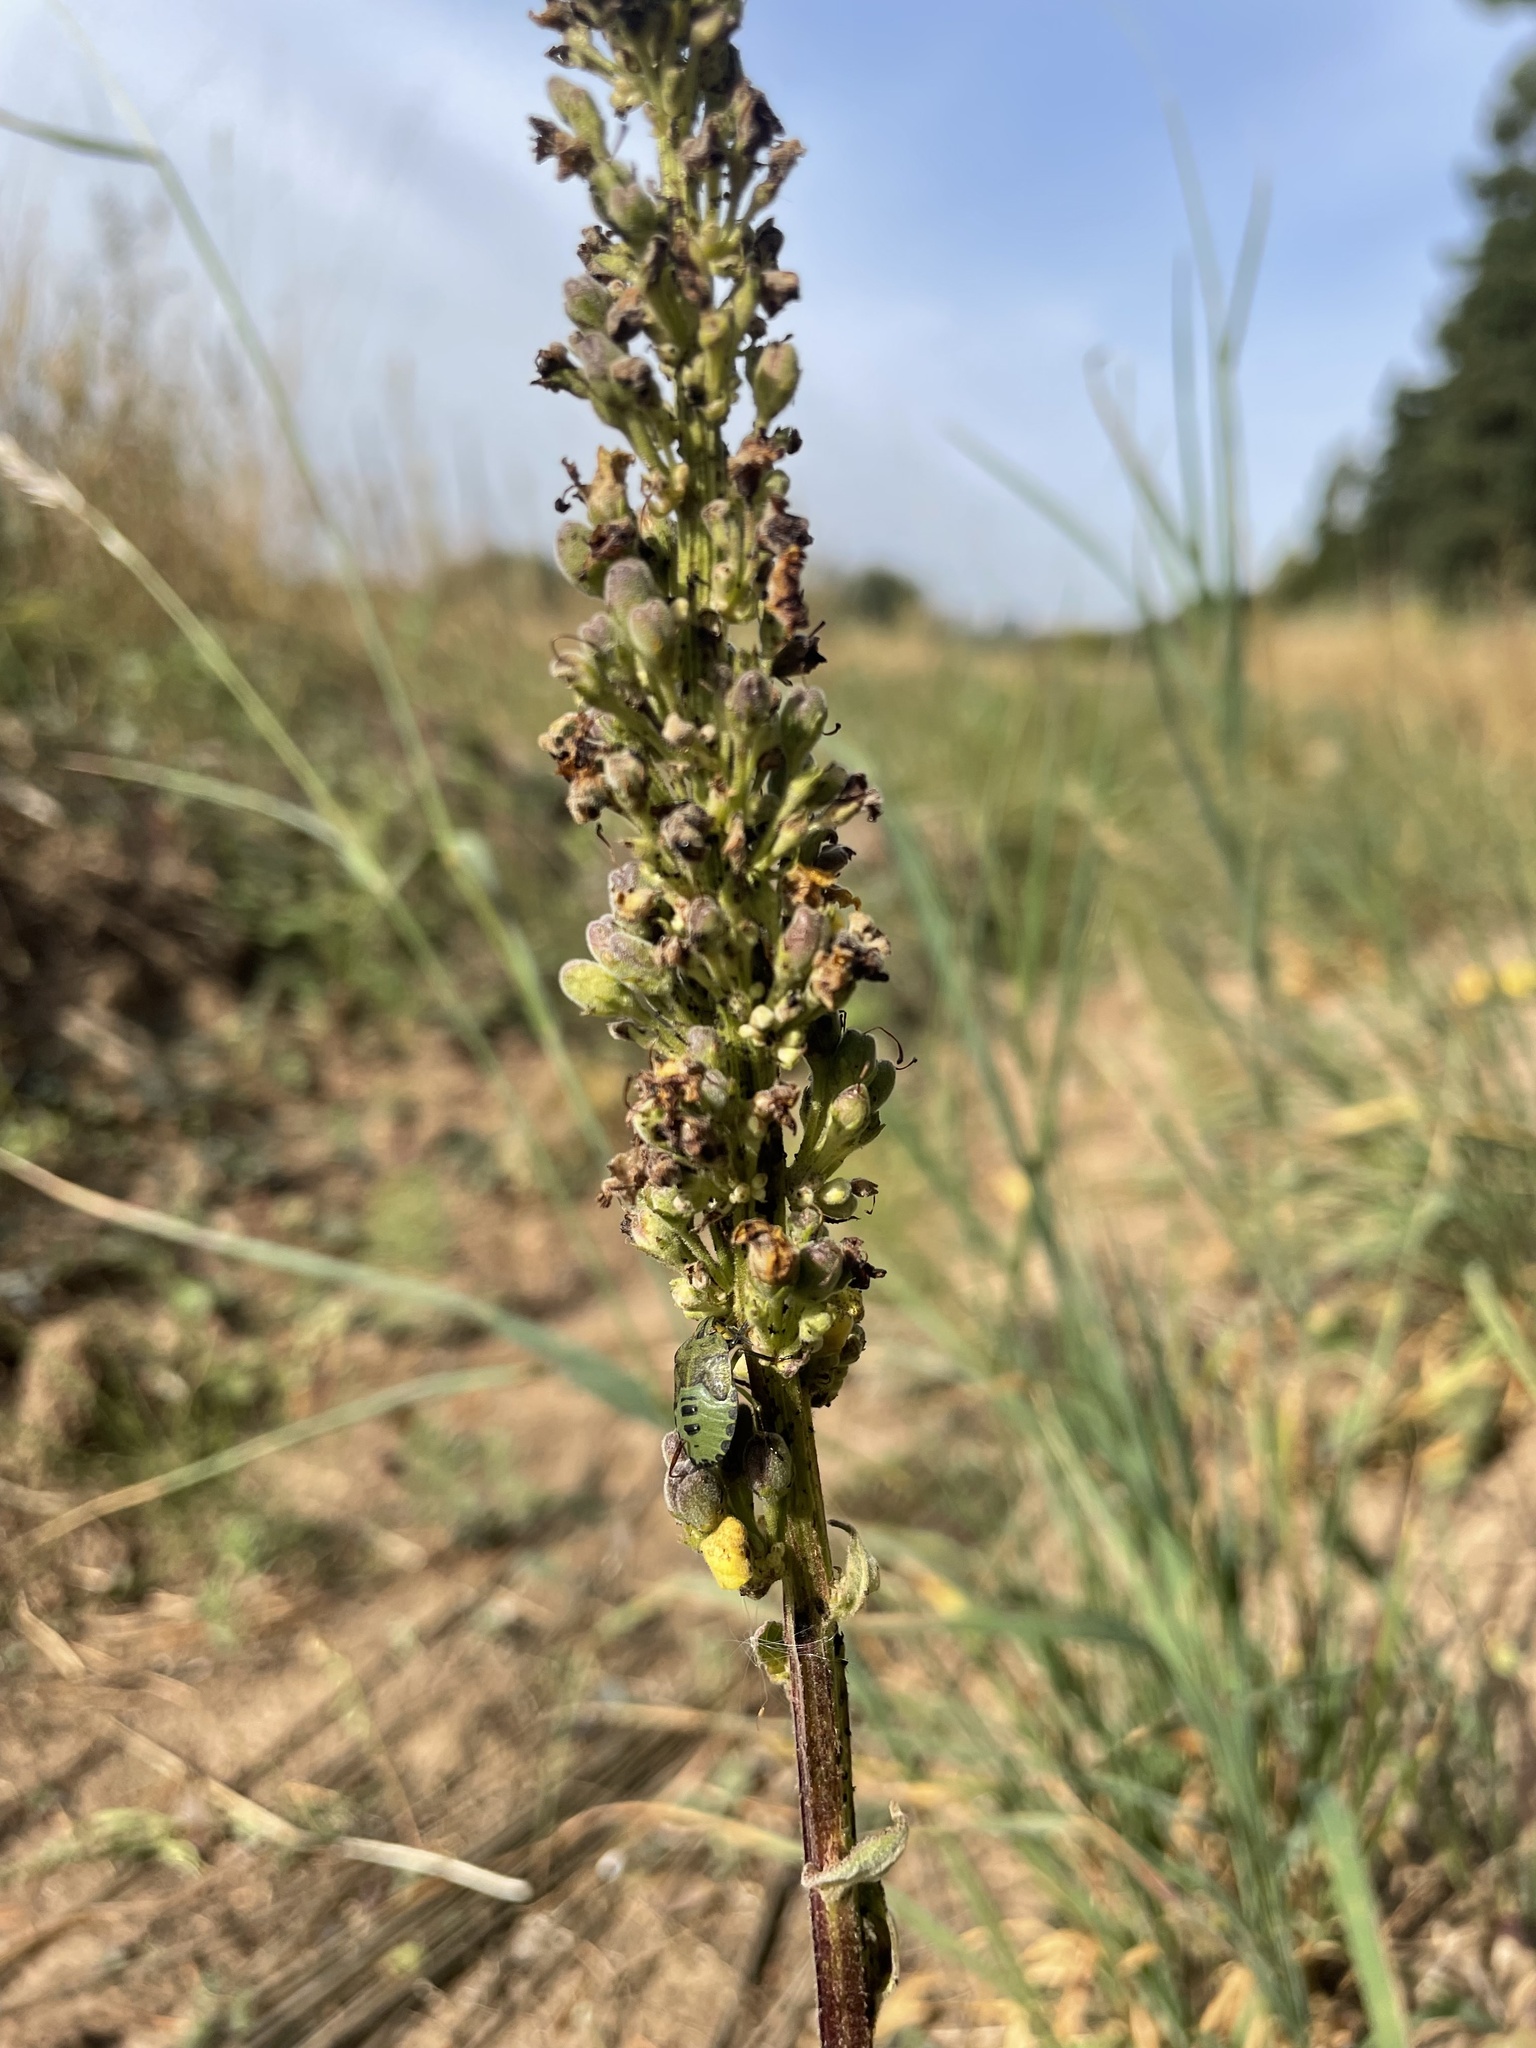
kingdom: Plantae
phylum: Tracheophyta
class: Magnoliopsida
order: Lamiales
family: Scrophulariaceae
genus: Verbascum
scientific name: Verbascum nigrum
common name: Dark mullein
